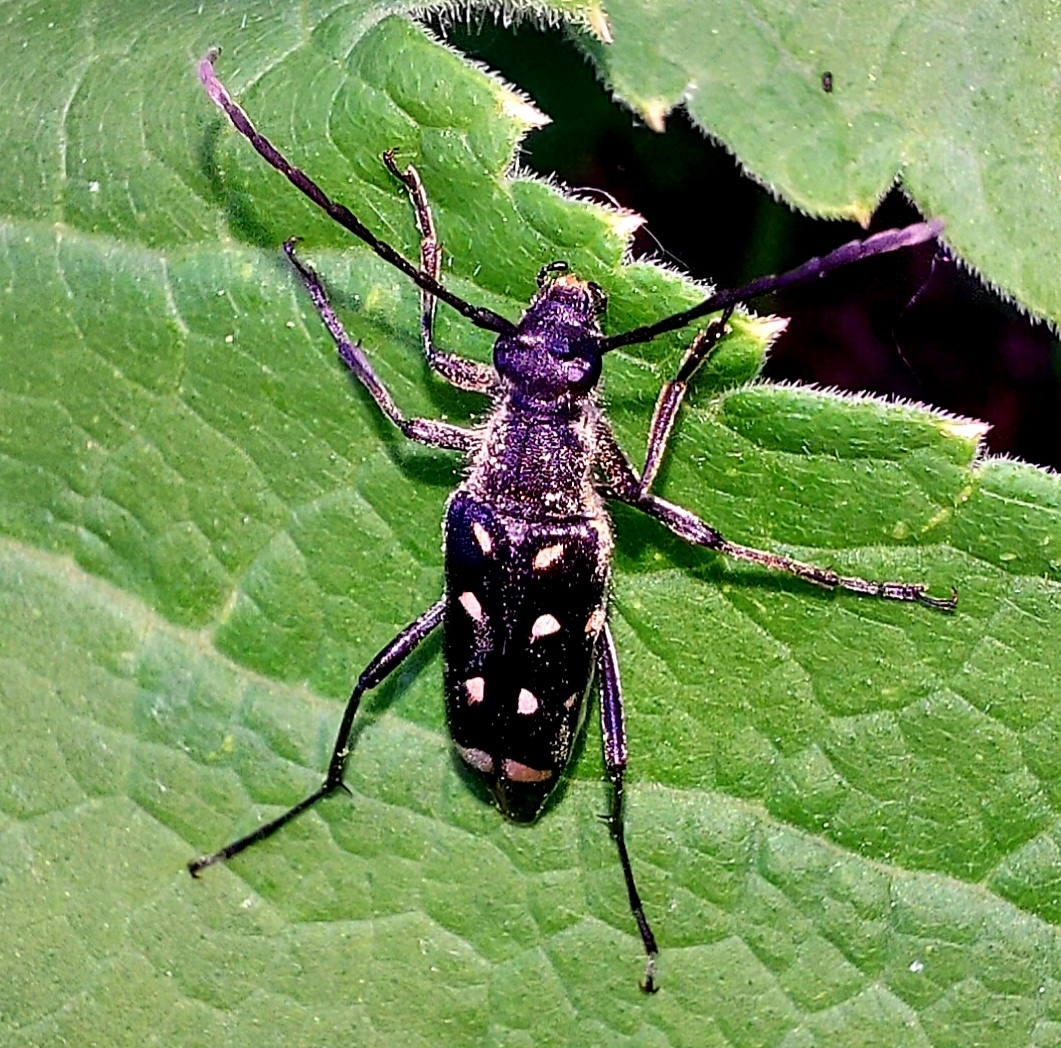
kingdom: Animalia
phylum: Arthropoda
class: Insecta
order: Coleoptera
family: Cerambycidae
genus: Leptura
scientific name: Leptura duodecimguttata
